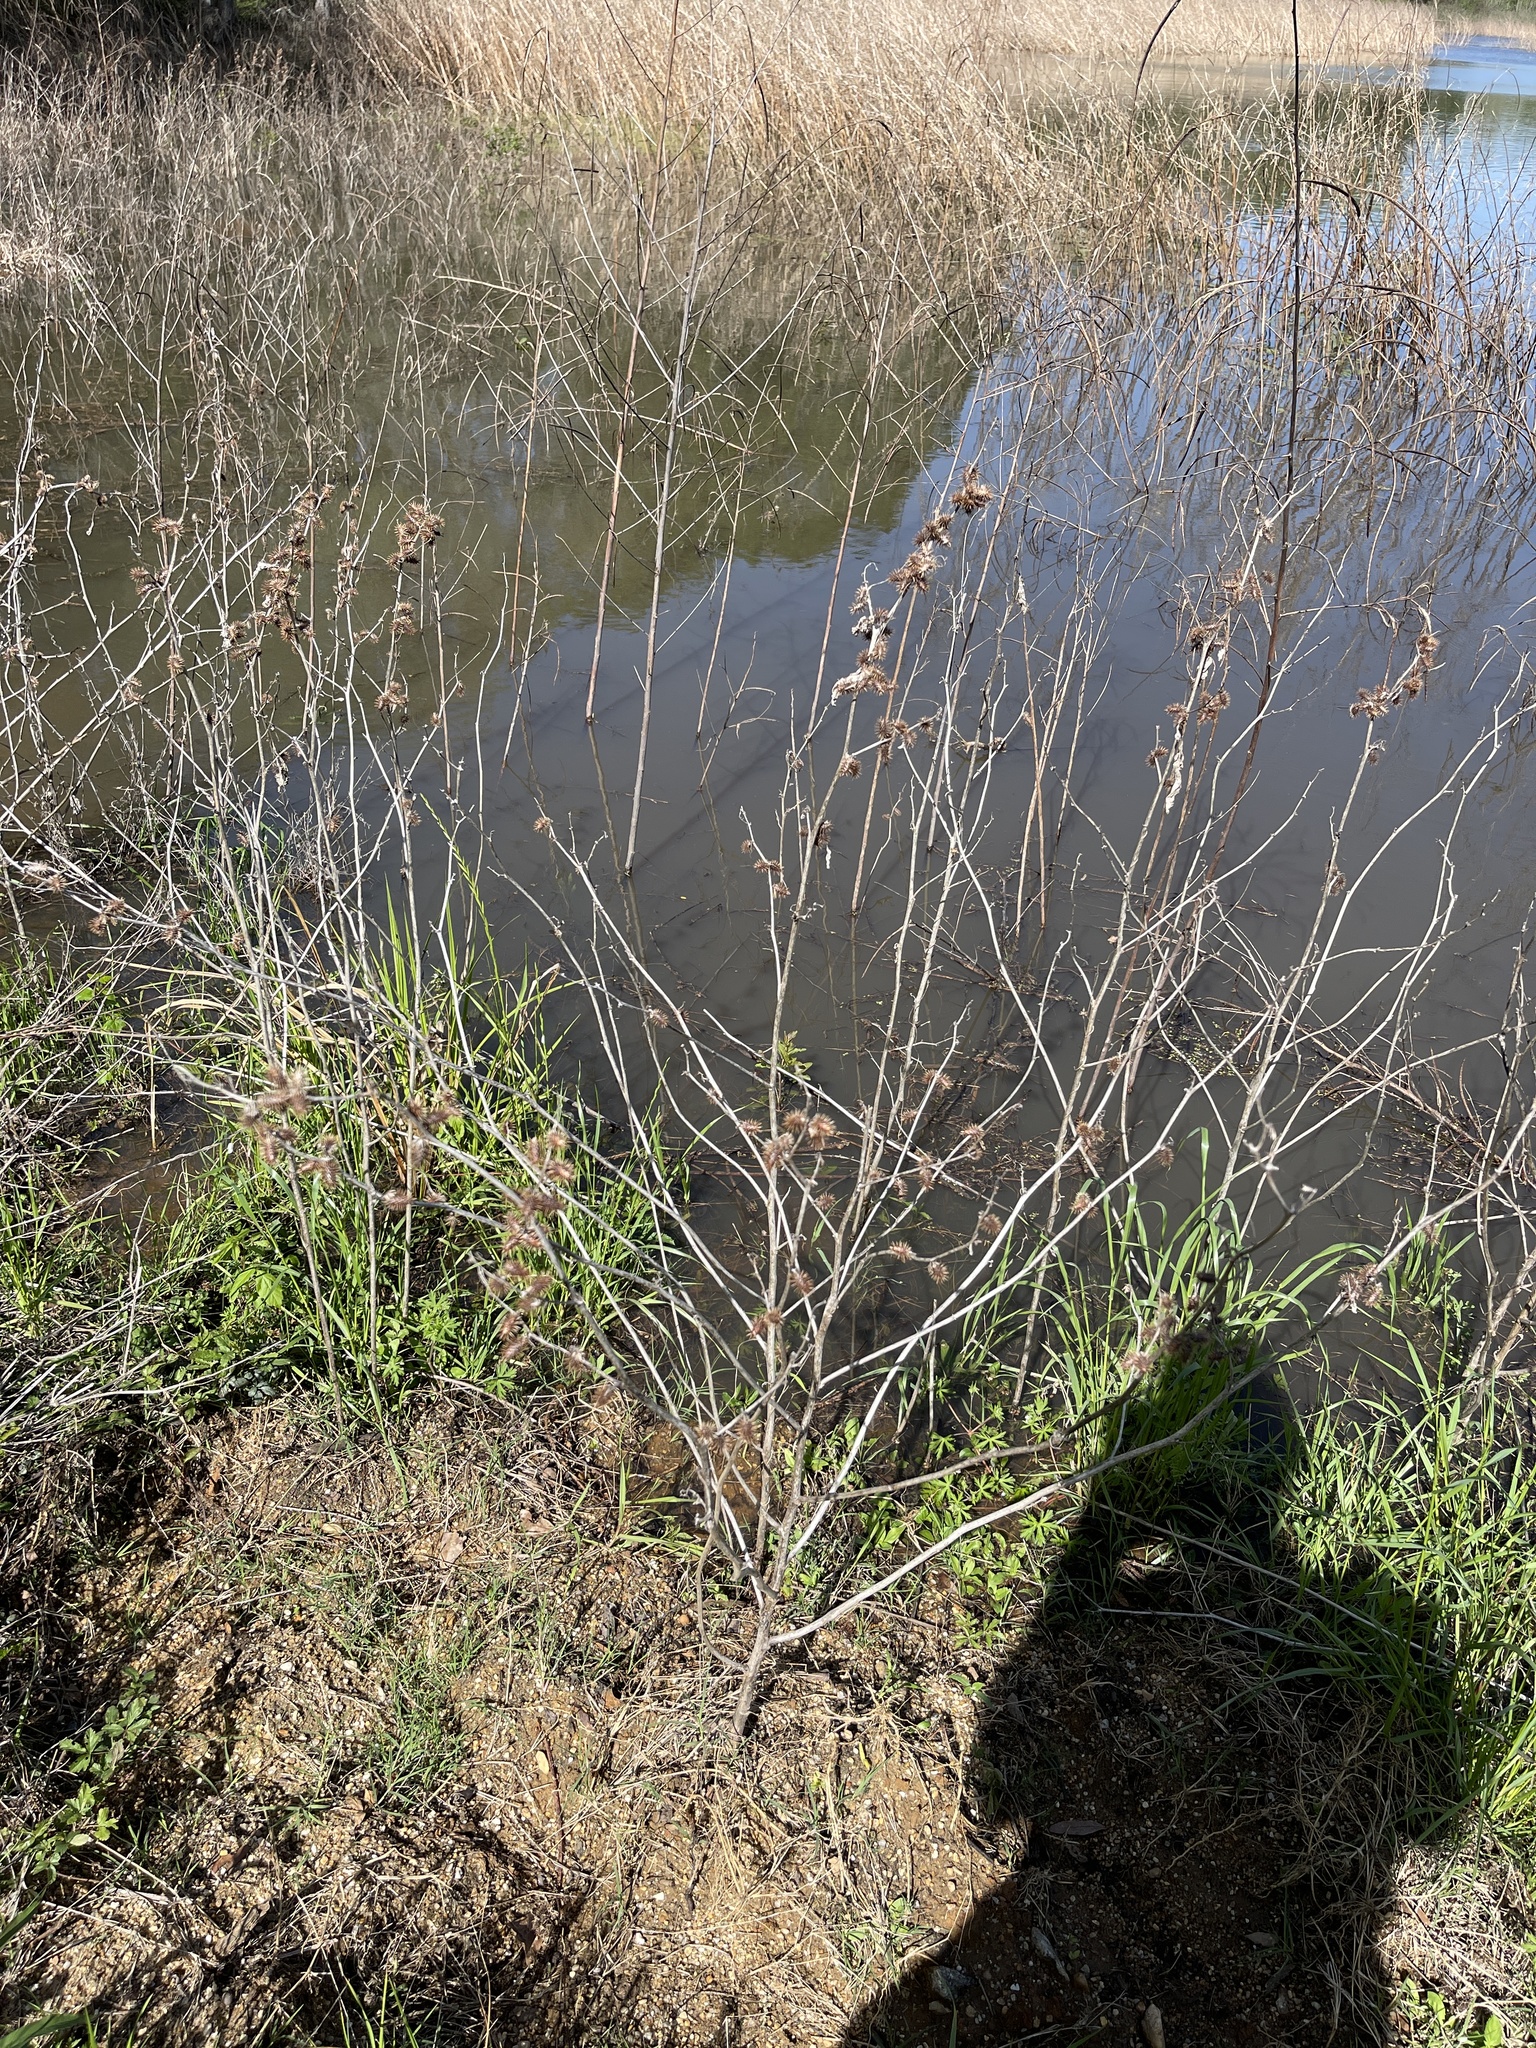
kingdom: Plantae
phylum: Tracheophyta
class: Magnoliopsida
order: Asterales
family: Asteraceae
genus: Xanthium
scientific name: Xanthium strumarium
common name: Rough cocklebur
